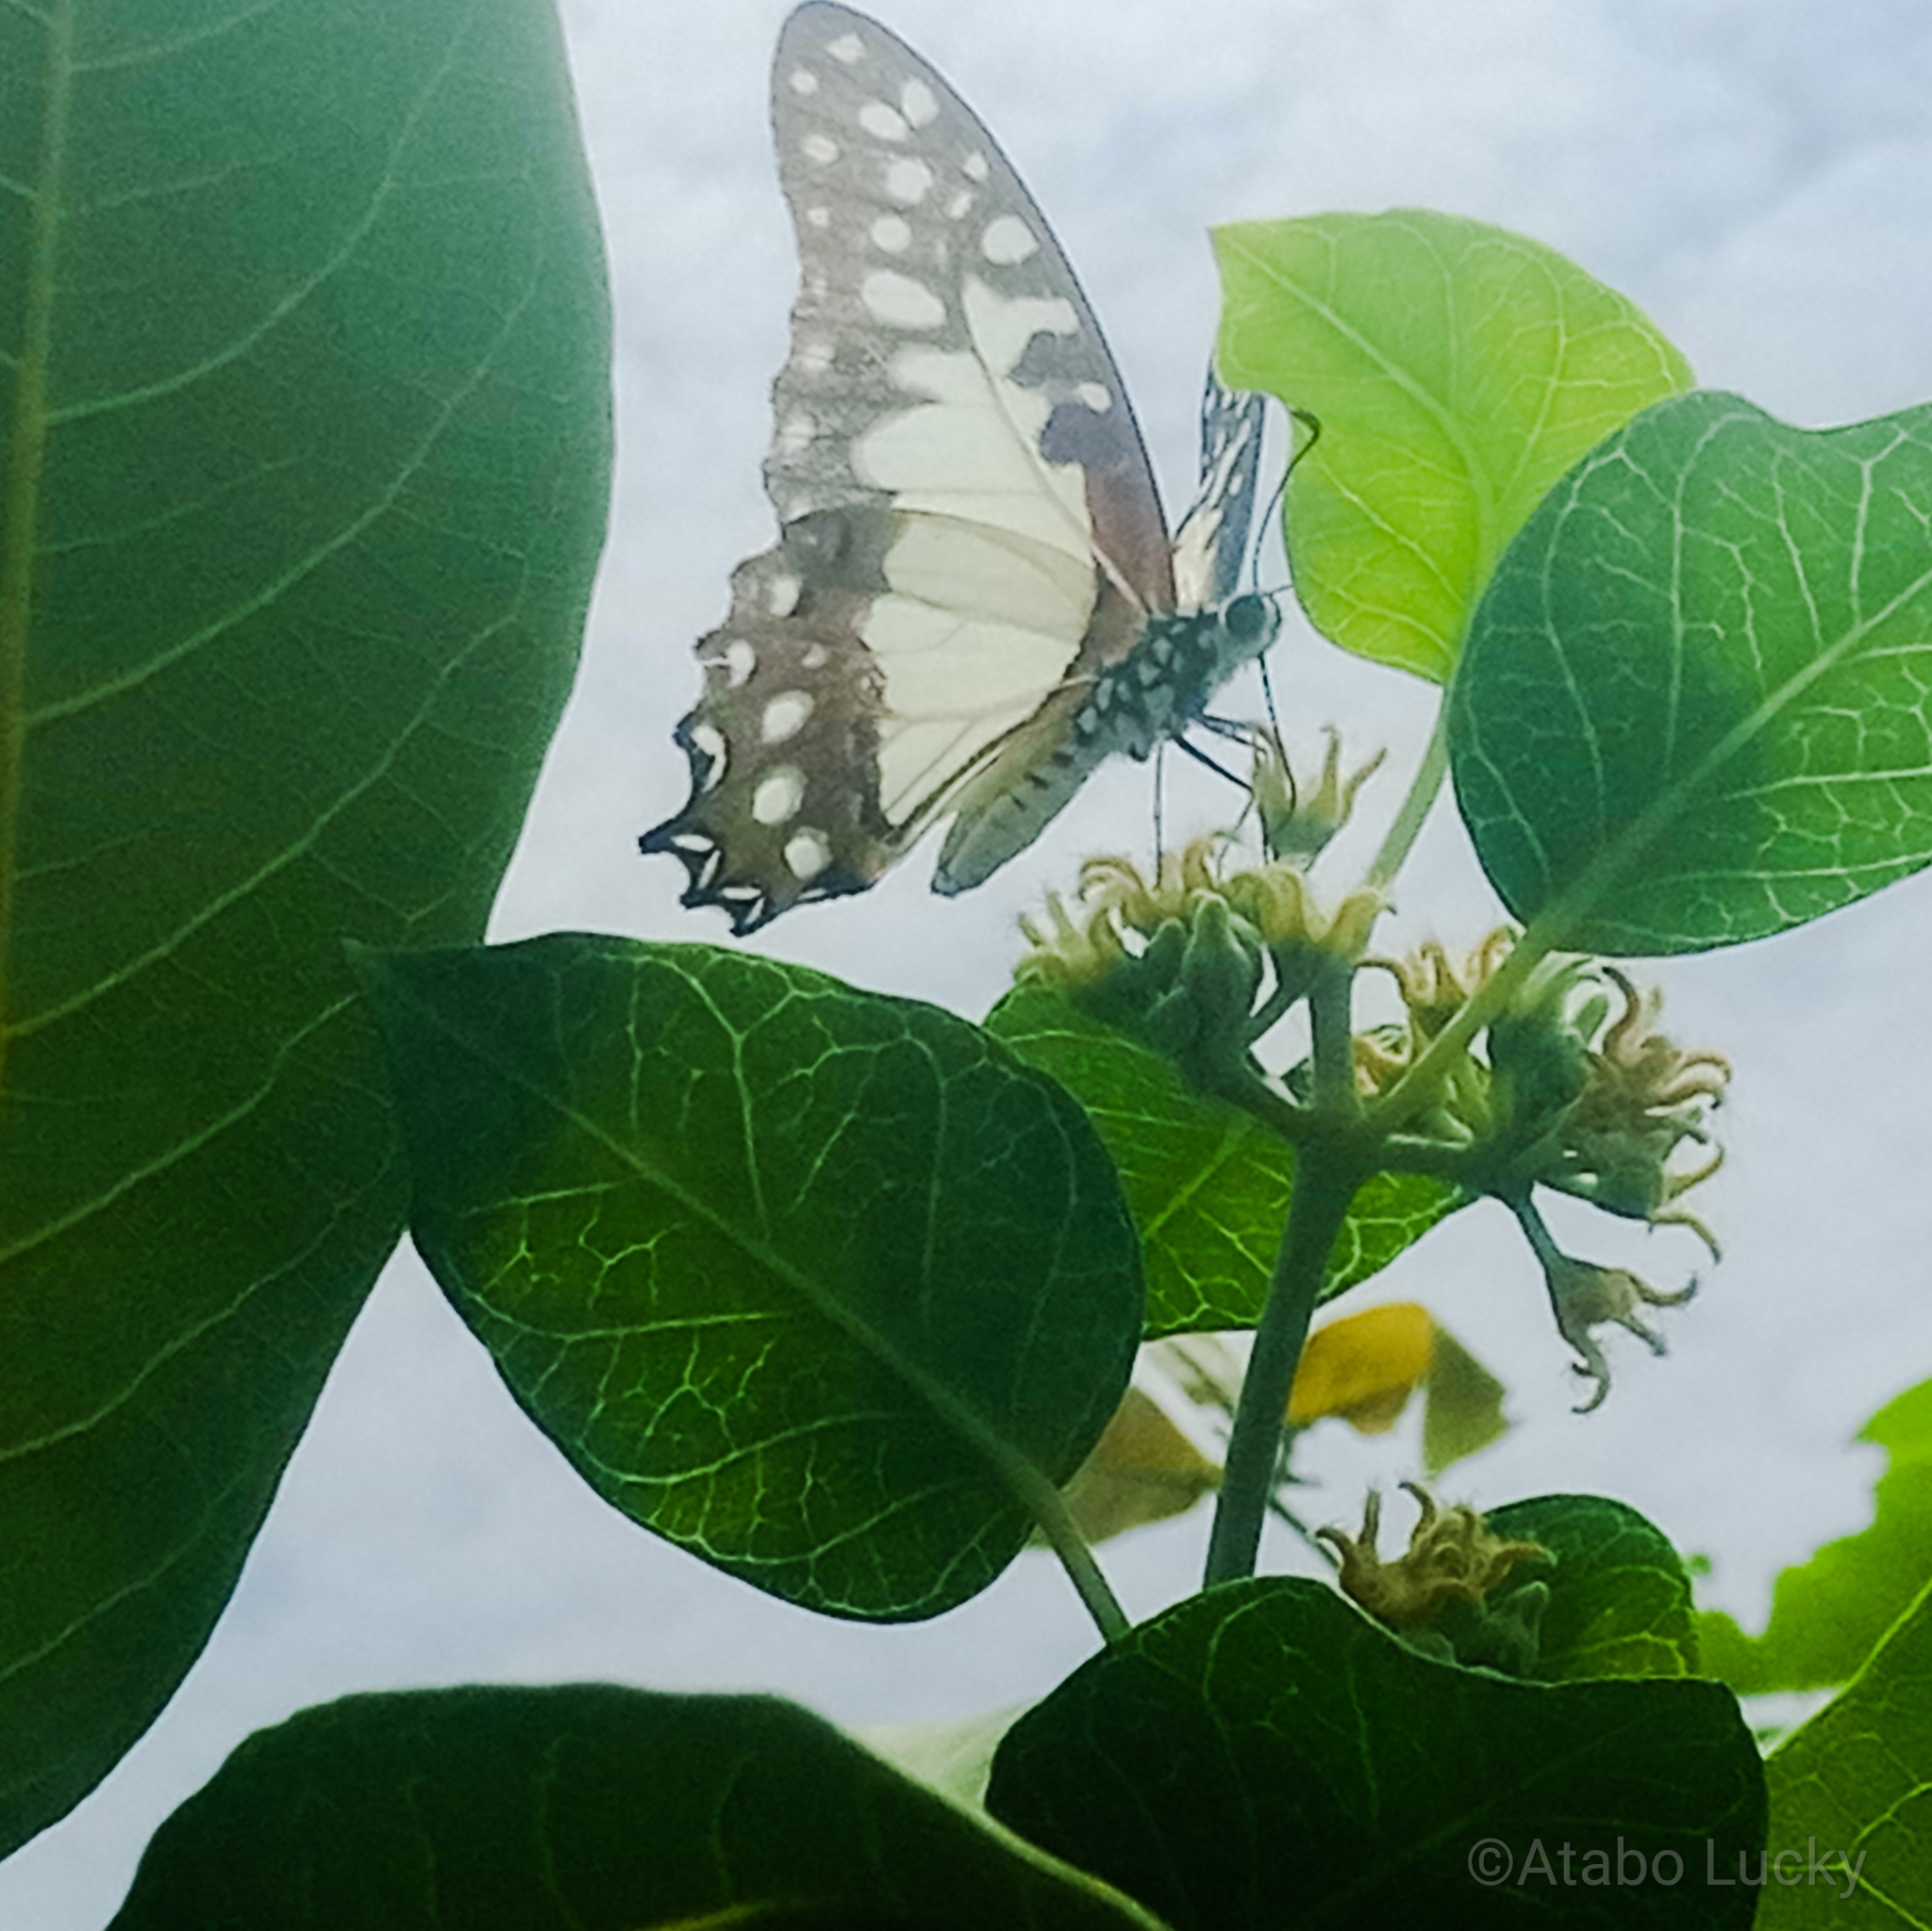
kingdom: Animalia
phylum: Arthropoda
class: Insecta
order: Lepidoptera
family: Papilionidae
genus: Graphium
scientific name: Graphium angolanus
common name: Angola white-lady swordtail
